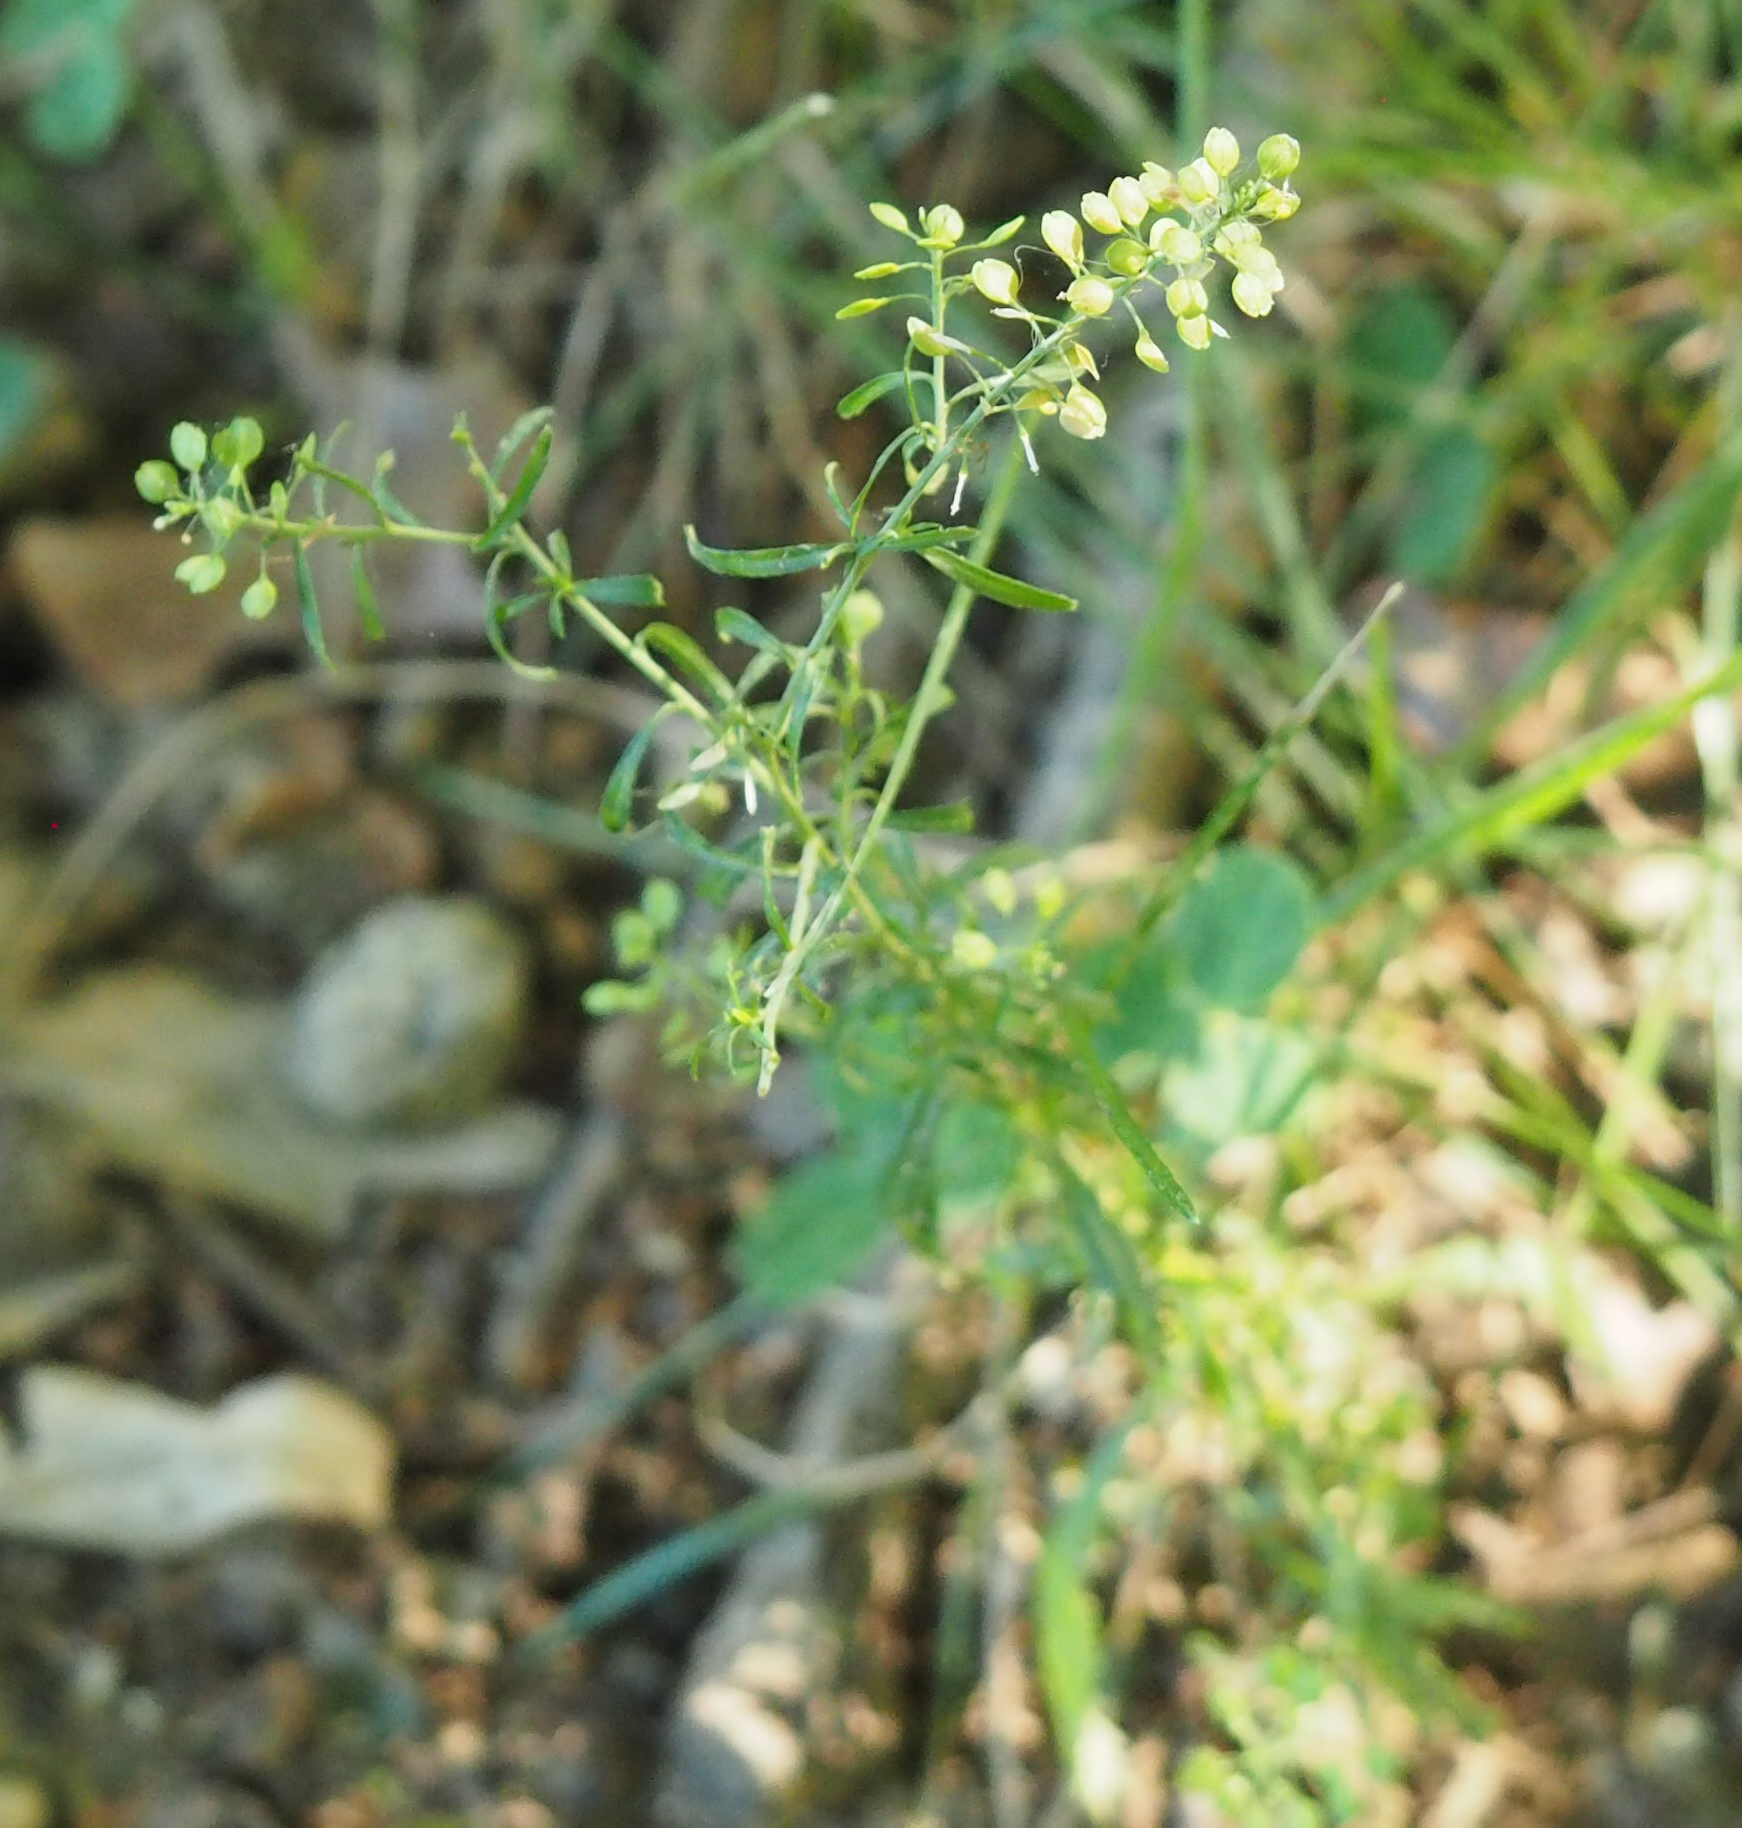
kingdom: Plantae
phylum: Tracheophyta
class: Magnoliopsida
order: Brassicales
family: Brassicaceae
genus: Lepidium
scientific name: Lepidium virginicum
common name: Least pepperwort
